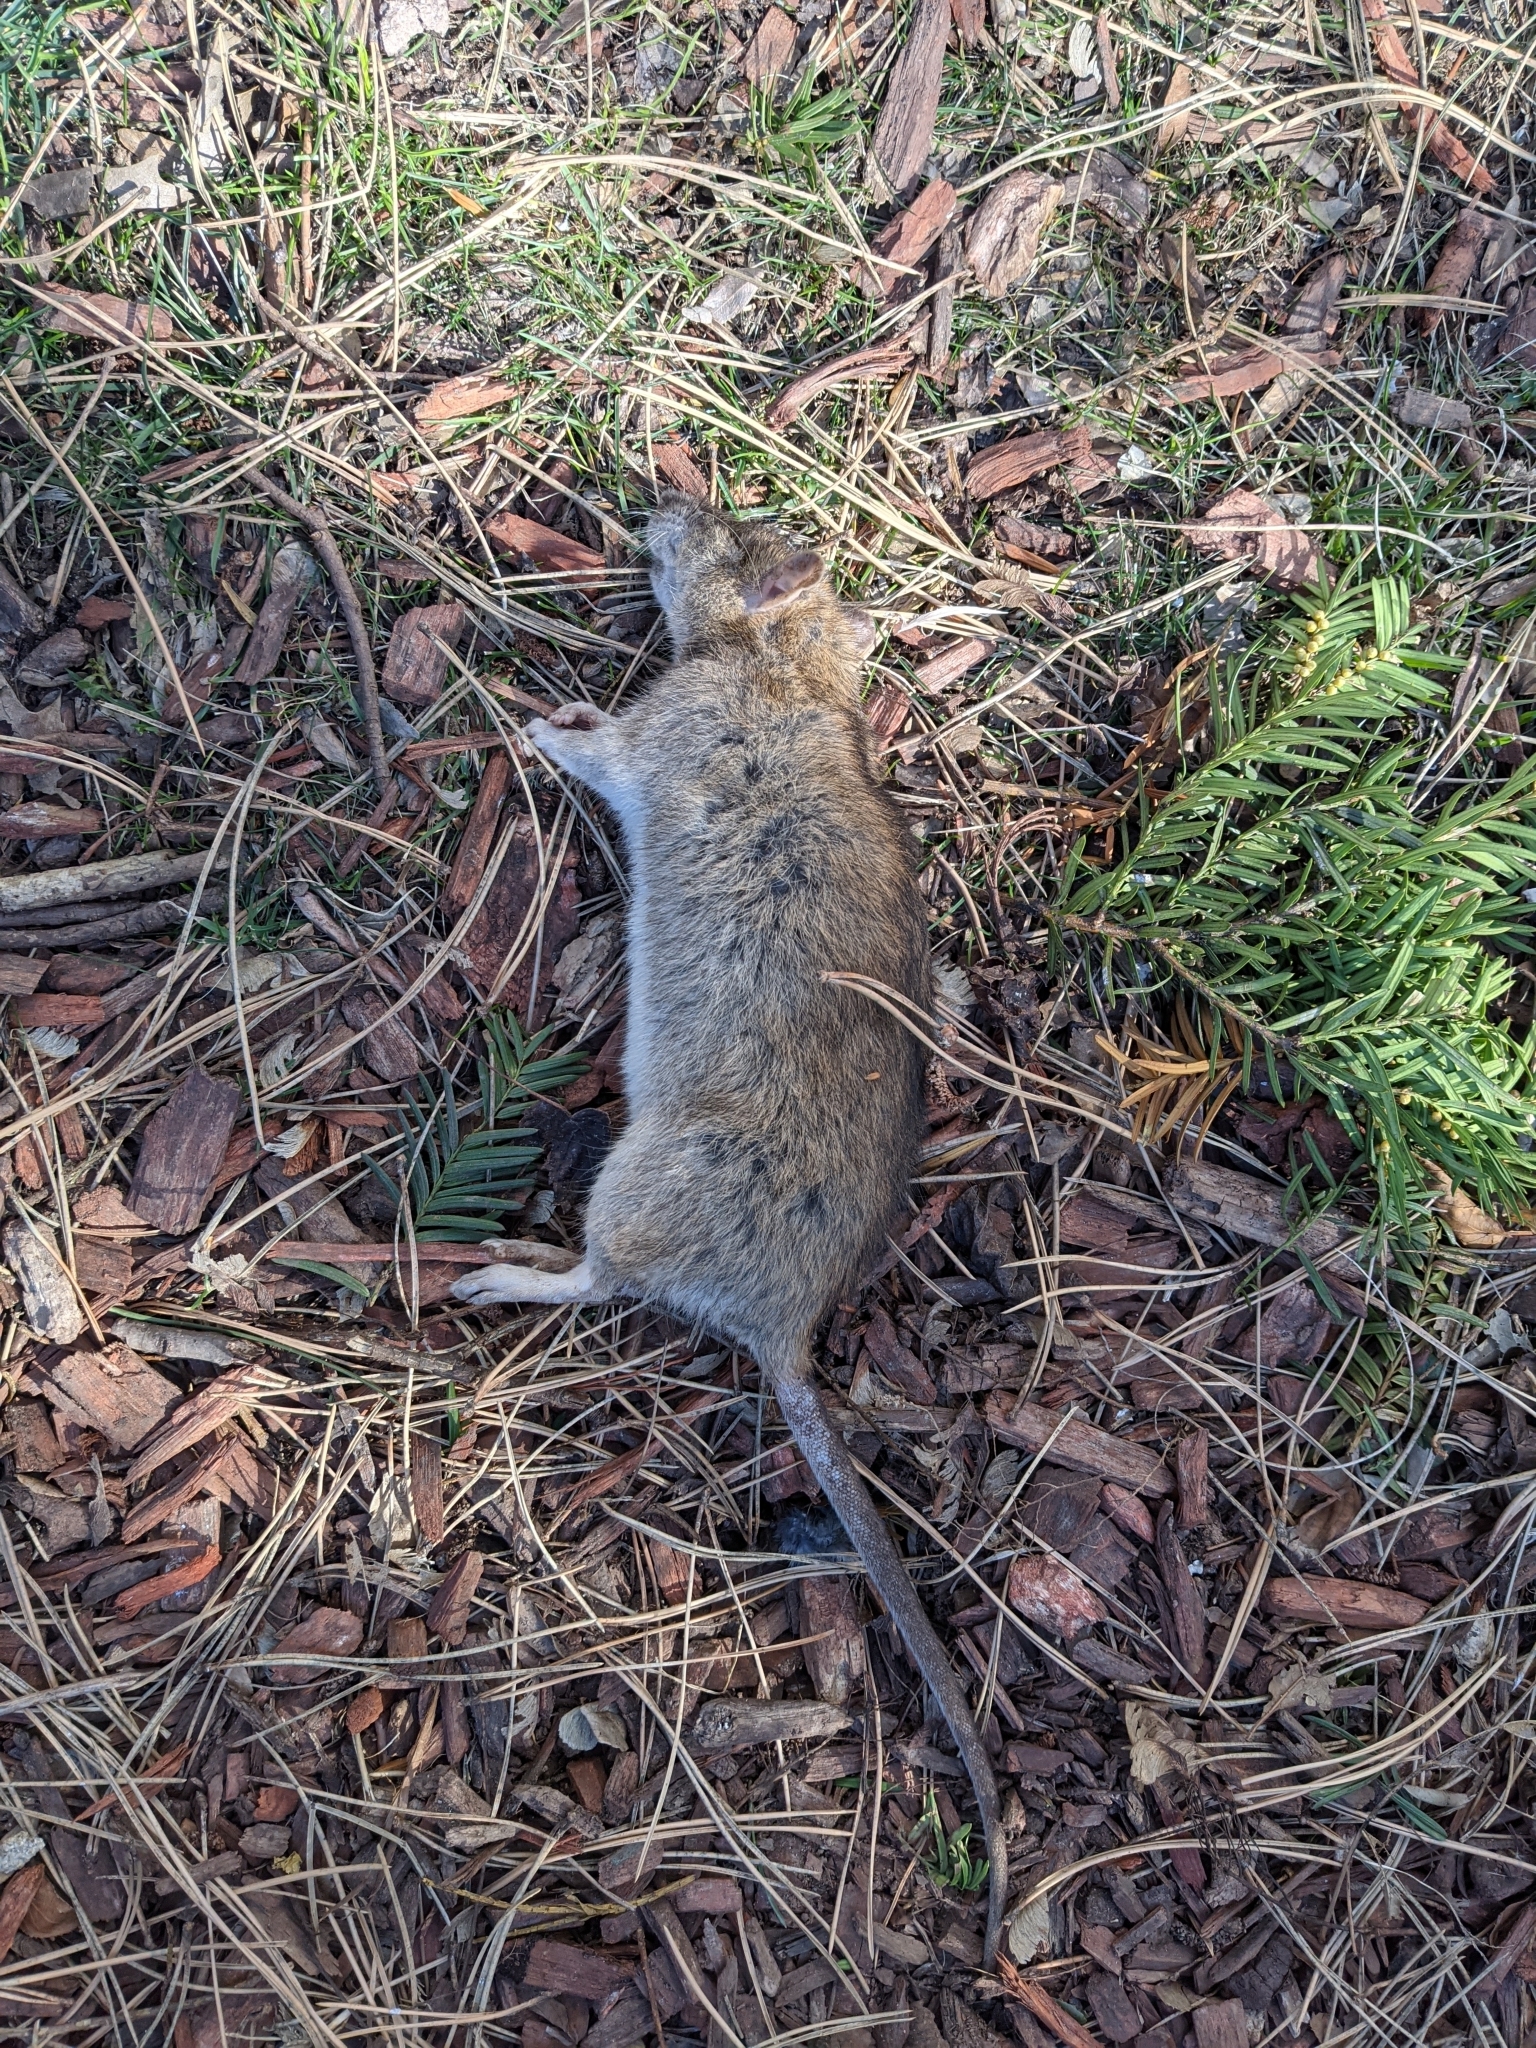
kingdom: Animalia
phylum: Chordata
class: Mammalia
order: Rodentia
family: Muridae
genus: Rattus
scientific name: Rattus norvegicus
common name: Brown rat
